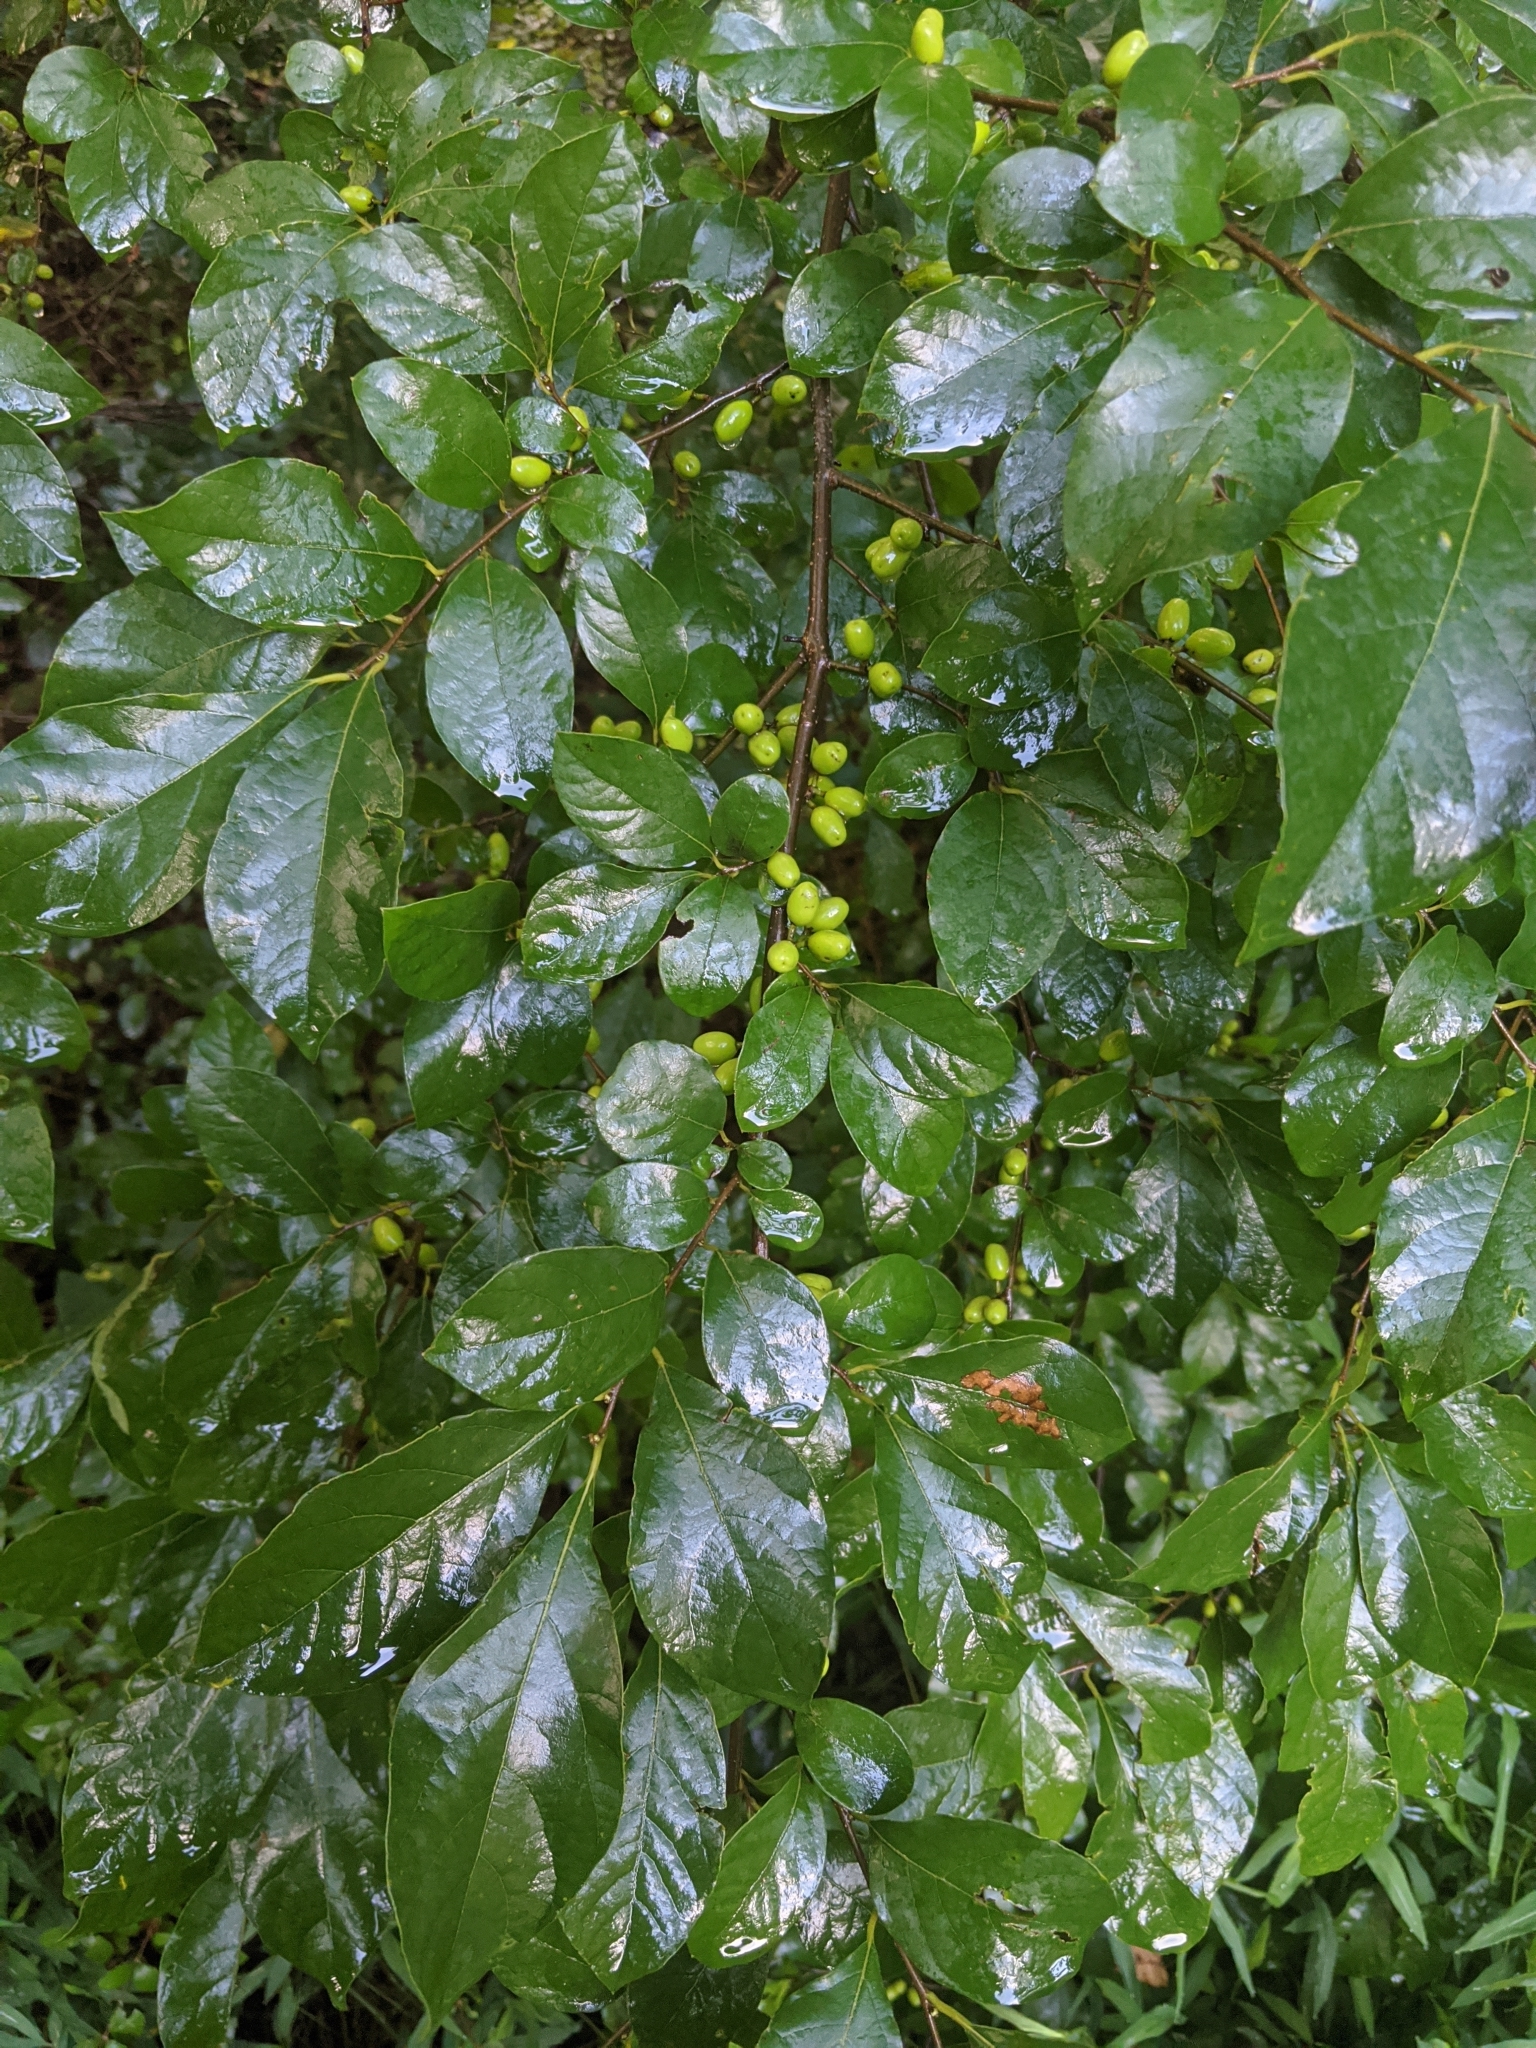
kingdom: Plantae
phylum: Tracheophyta
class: Magnoliopsida
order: Laurales
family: Lauraceae
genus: Lindera
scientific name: Lindera benzoin
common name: Spicebush
